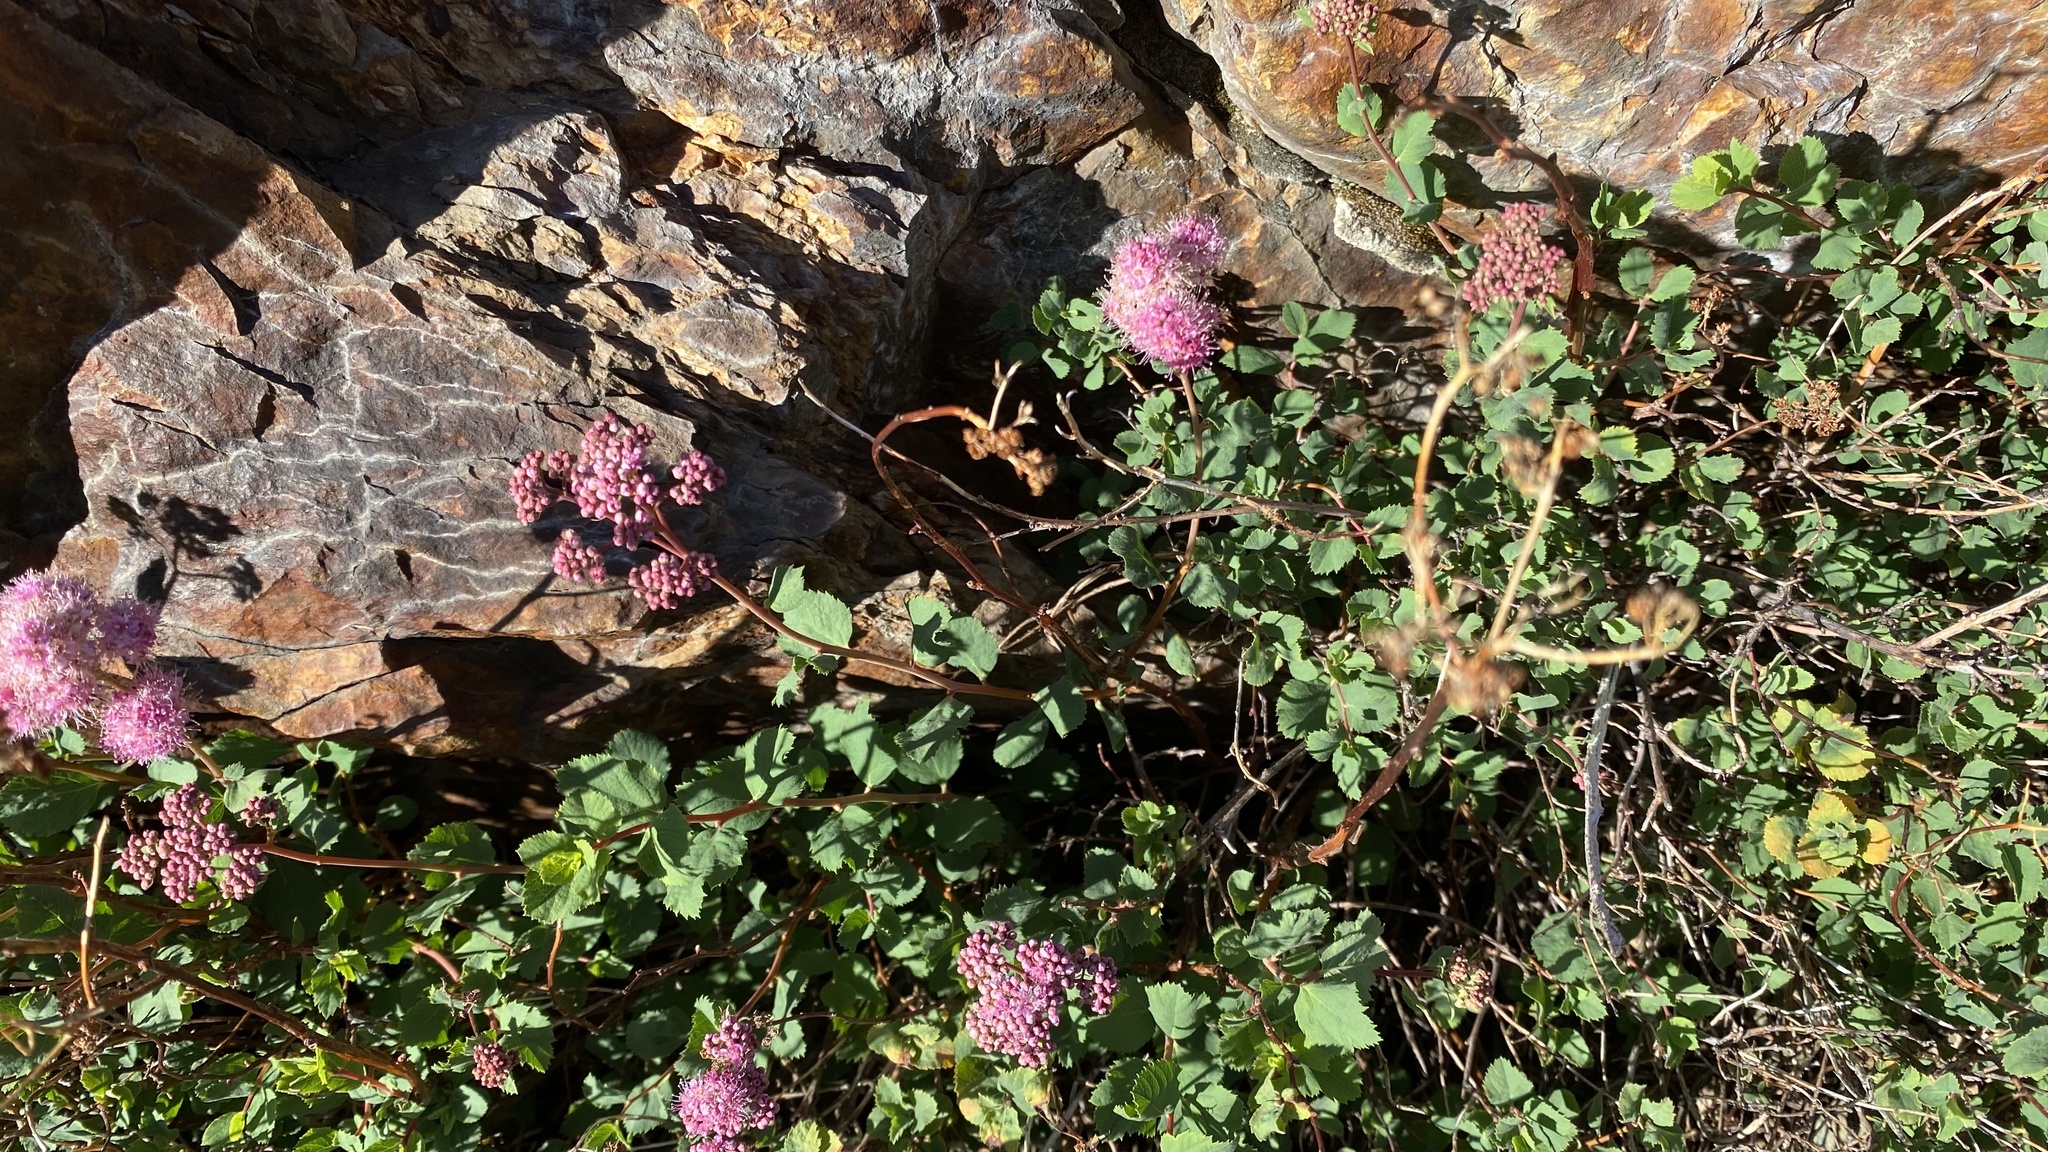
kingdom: Plantae
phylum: Tracheophyta
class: Magnoliopsida
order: Rosales
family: Rosaceae
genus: Spiraea
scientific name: Spiraea splendens
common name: Subalpine meadowsweet
